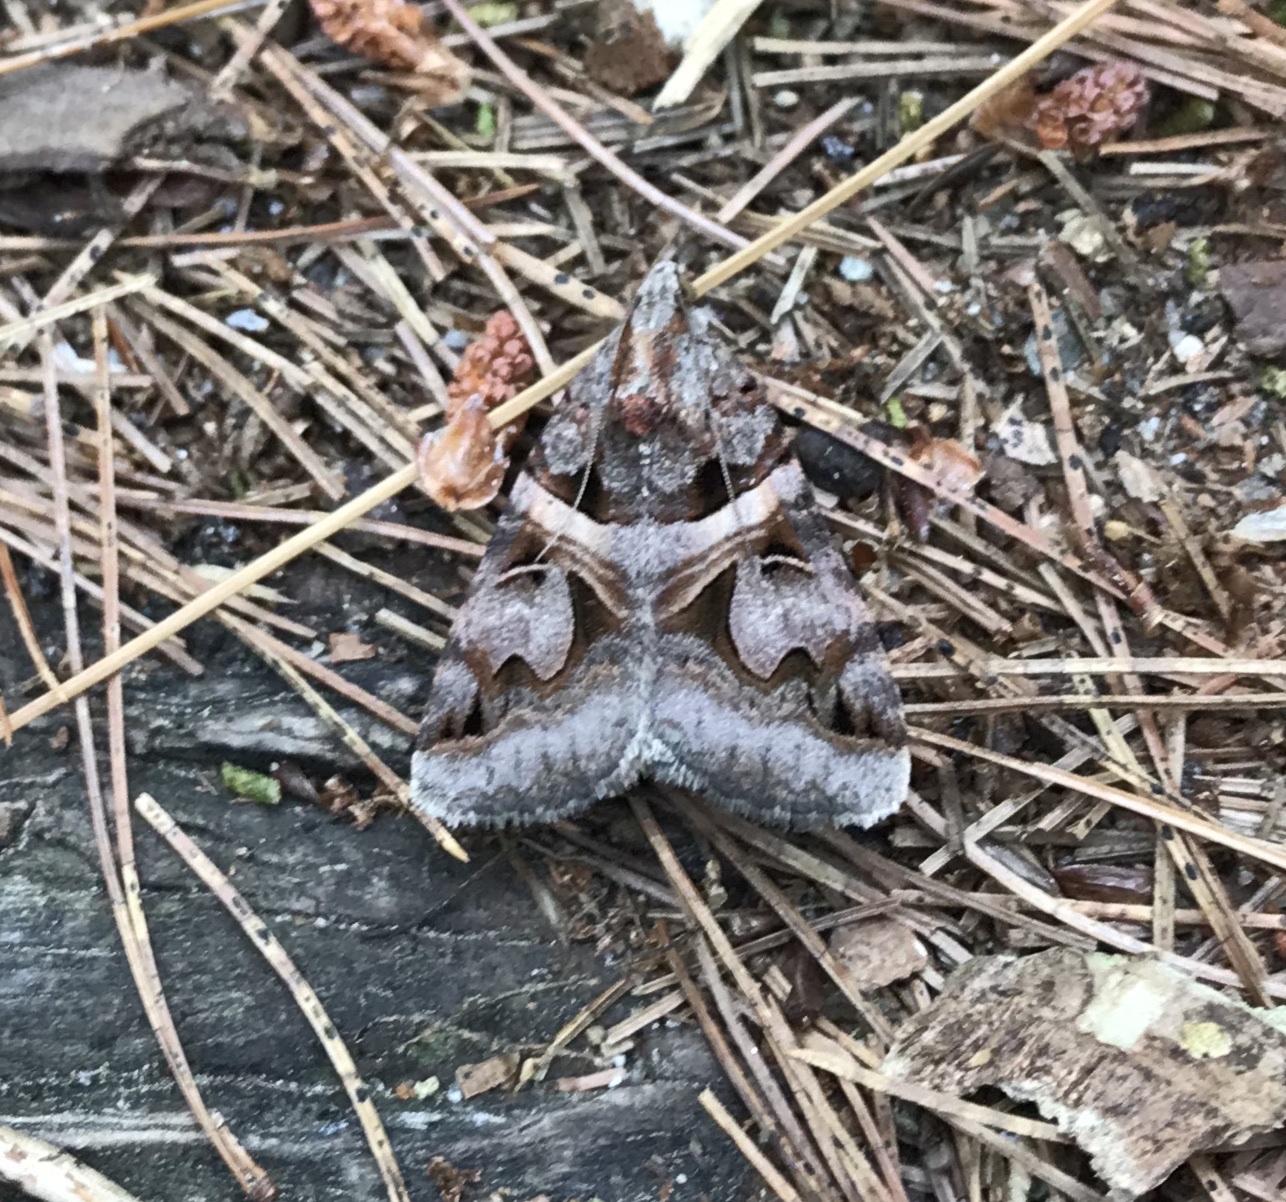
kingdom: Animalia
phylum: Arthropoda
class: Insecta
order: Lepidoptera
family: Erebidae
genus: Drasteria
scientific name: Drasteria grandirena
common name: Figure-seven moth
